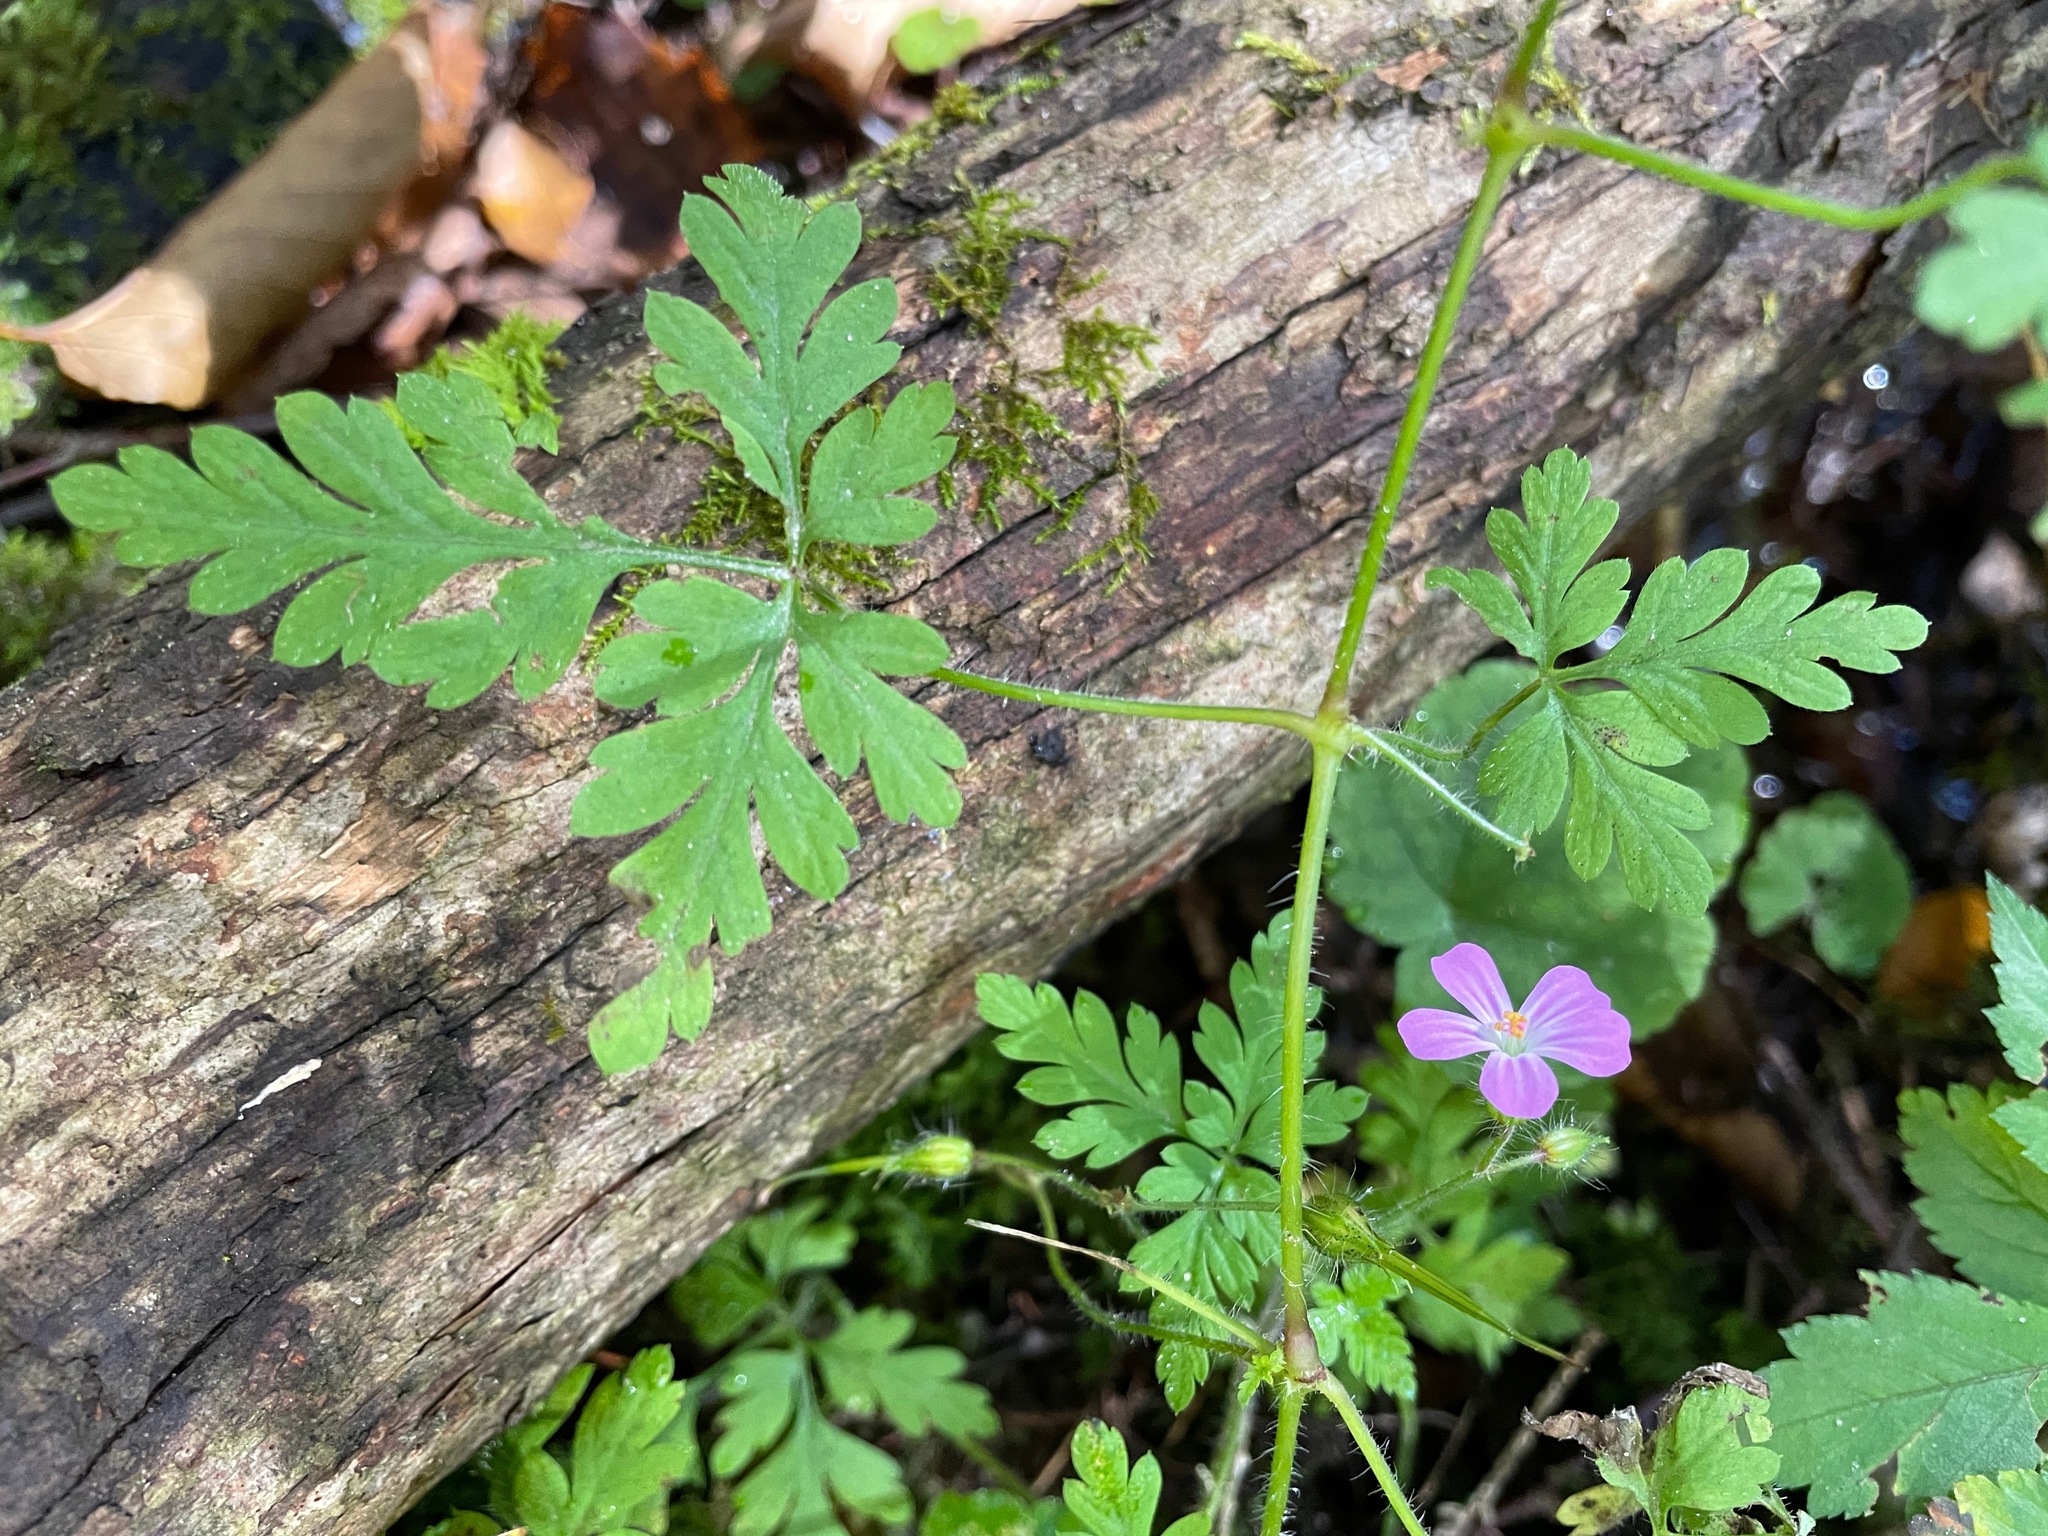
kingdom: Plantae
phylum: Tracheophyta
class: Magnoliopsida
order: Geraniales
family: Geraniaceae
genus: Geranium
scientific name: Geranium robertianum
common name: Herb-robert
